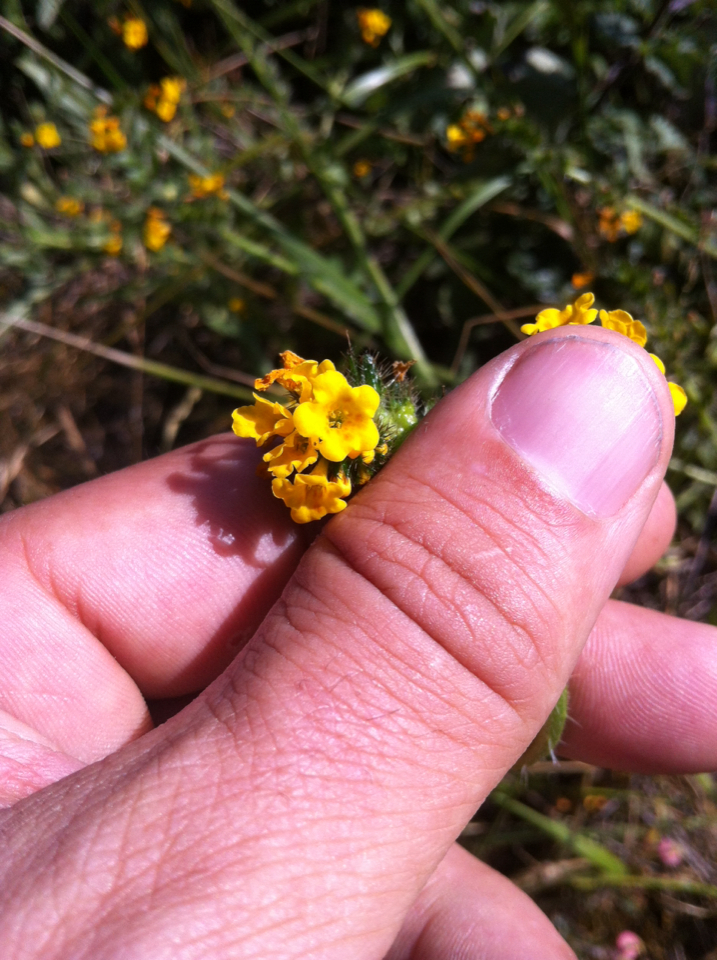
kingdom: Plantae
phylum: Tracheophyta
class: Magnoliopsida
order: Boraginales
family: Boraginaceae
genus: Amsinckia
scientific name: Amsinckia menziesii
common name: Menzies' fiddleneck
